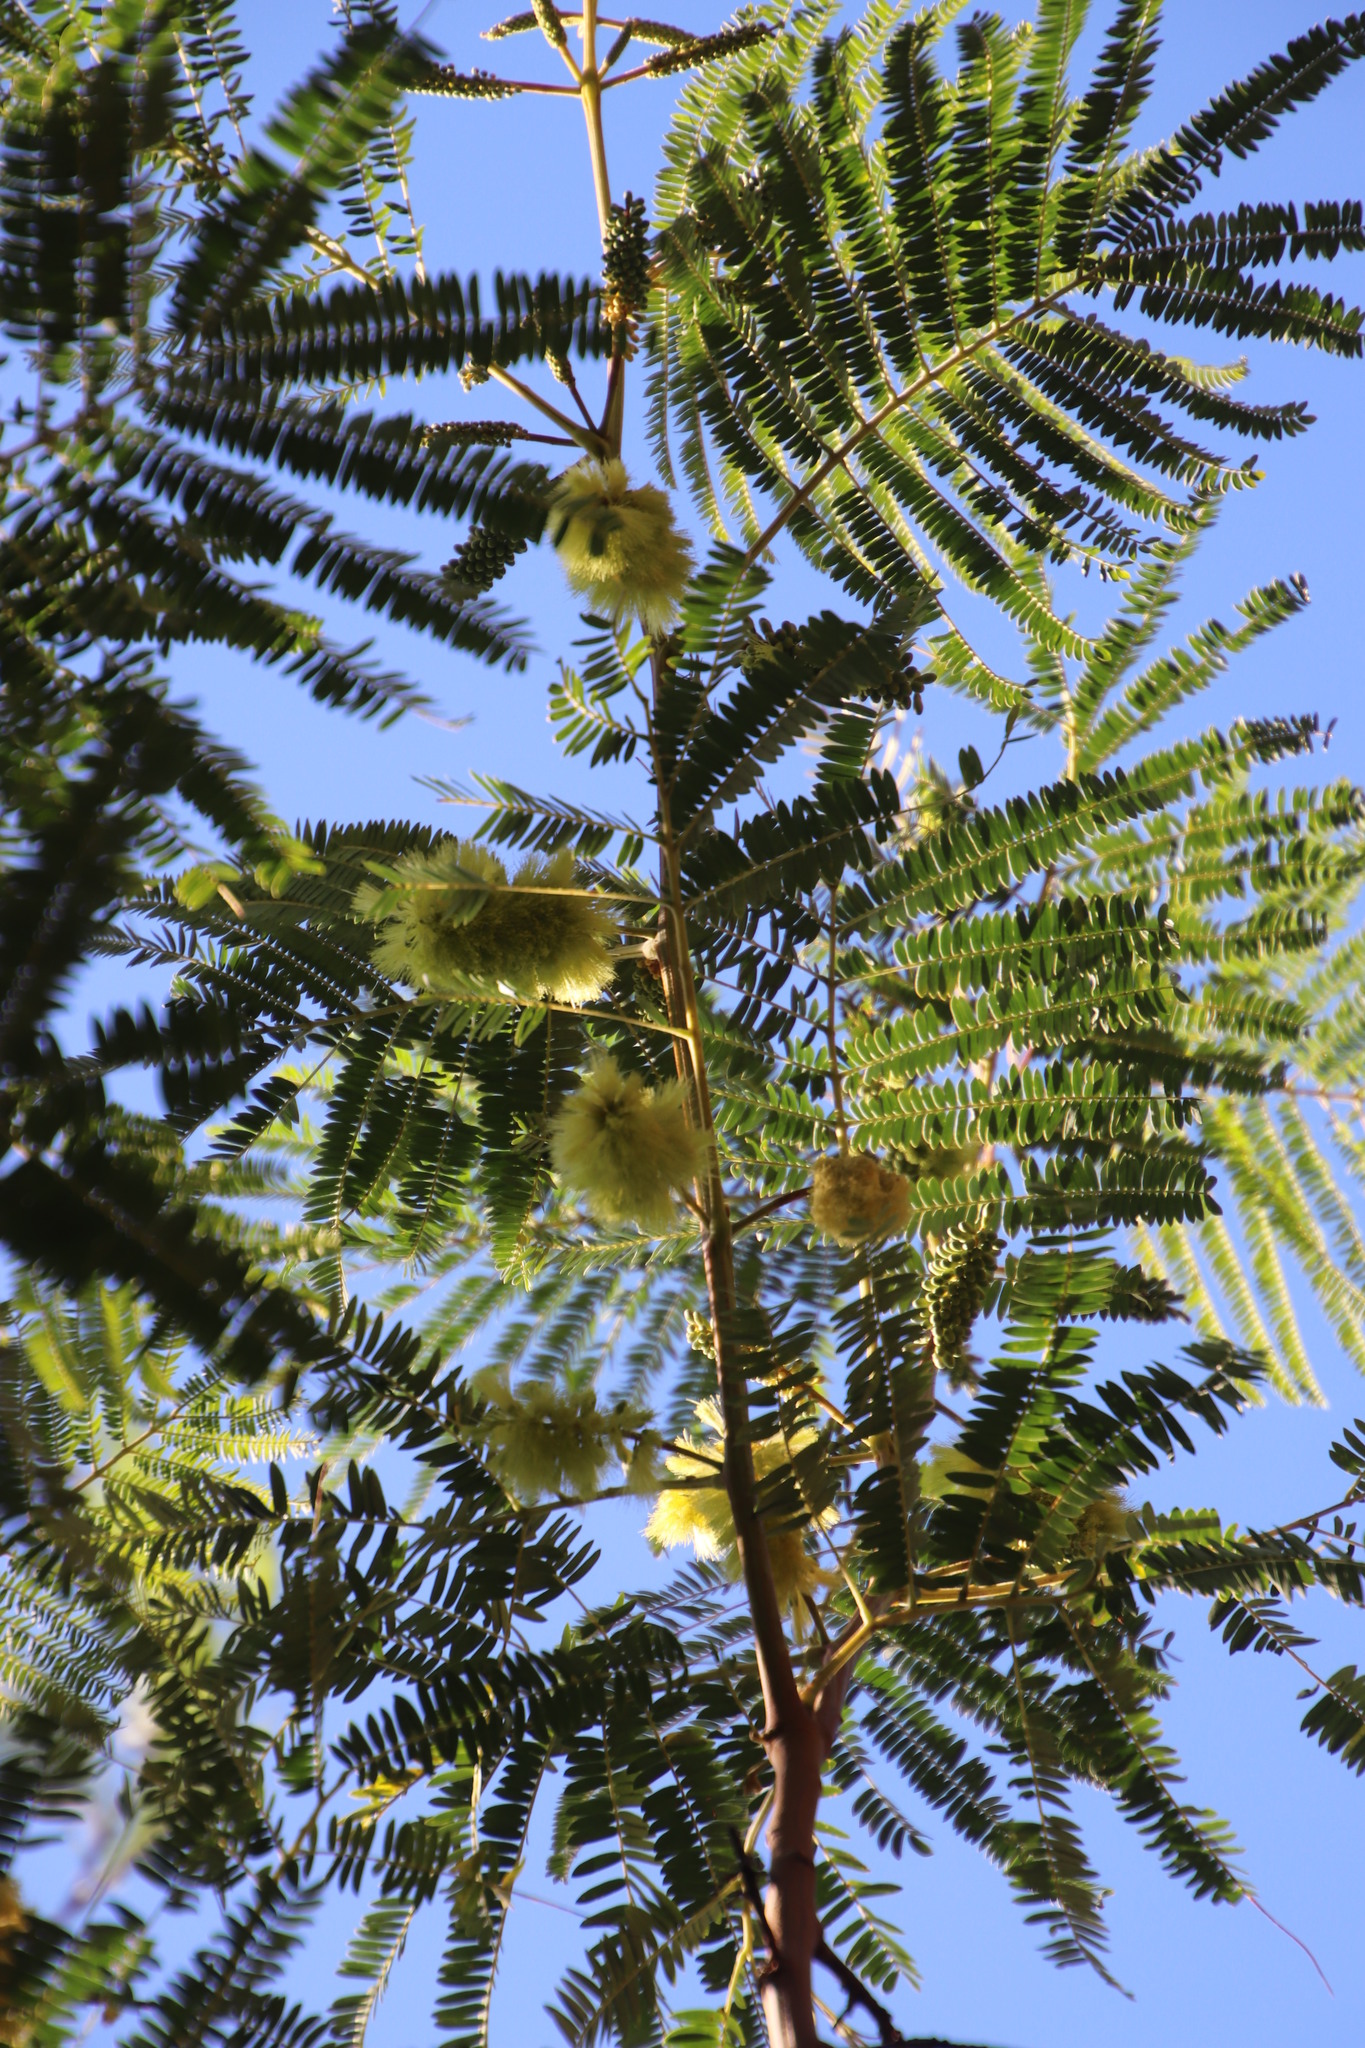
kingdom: Plantae
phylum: Tracheophyta
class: Magnoliopsida
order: Fabales
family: Fabaceae
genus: Paraserianthes
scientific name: Paraserianthes lophantha
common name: Plume albizia
